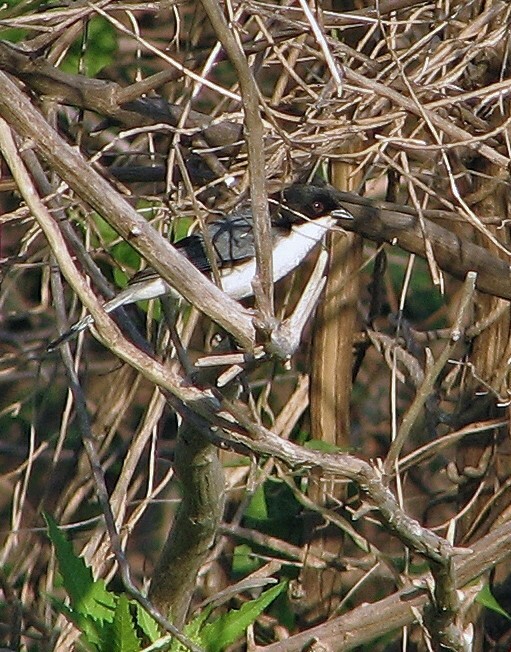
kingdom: Animalia
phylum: Chordata
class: Aves
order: Passeriformes
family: Thraupidae
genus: Microspingus
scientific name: Microspingus melanoleucus
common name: Black-capped warbling-finch
